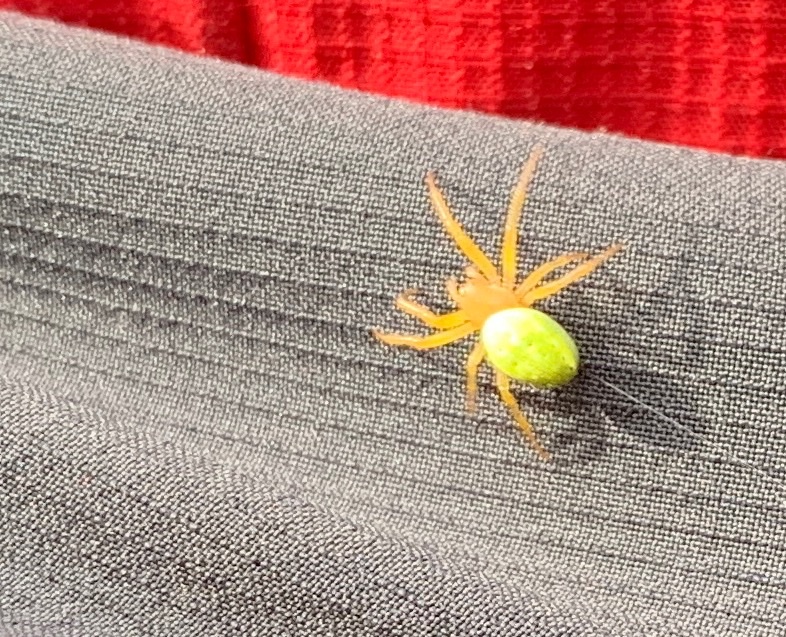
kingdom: Animalia
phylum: Arthropoda
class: Arachnida
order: Araneae
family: Araneidae
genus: Araniella
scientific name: Araniella
